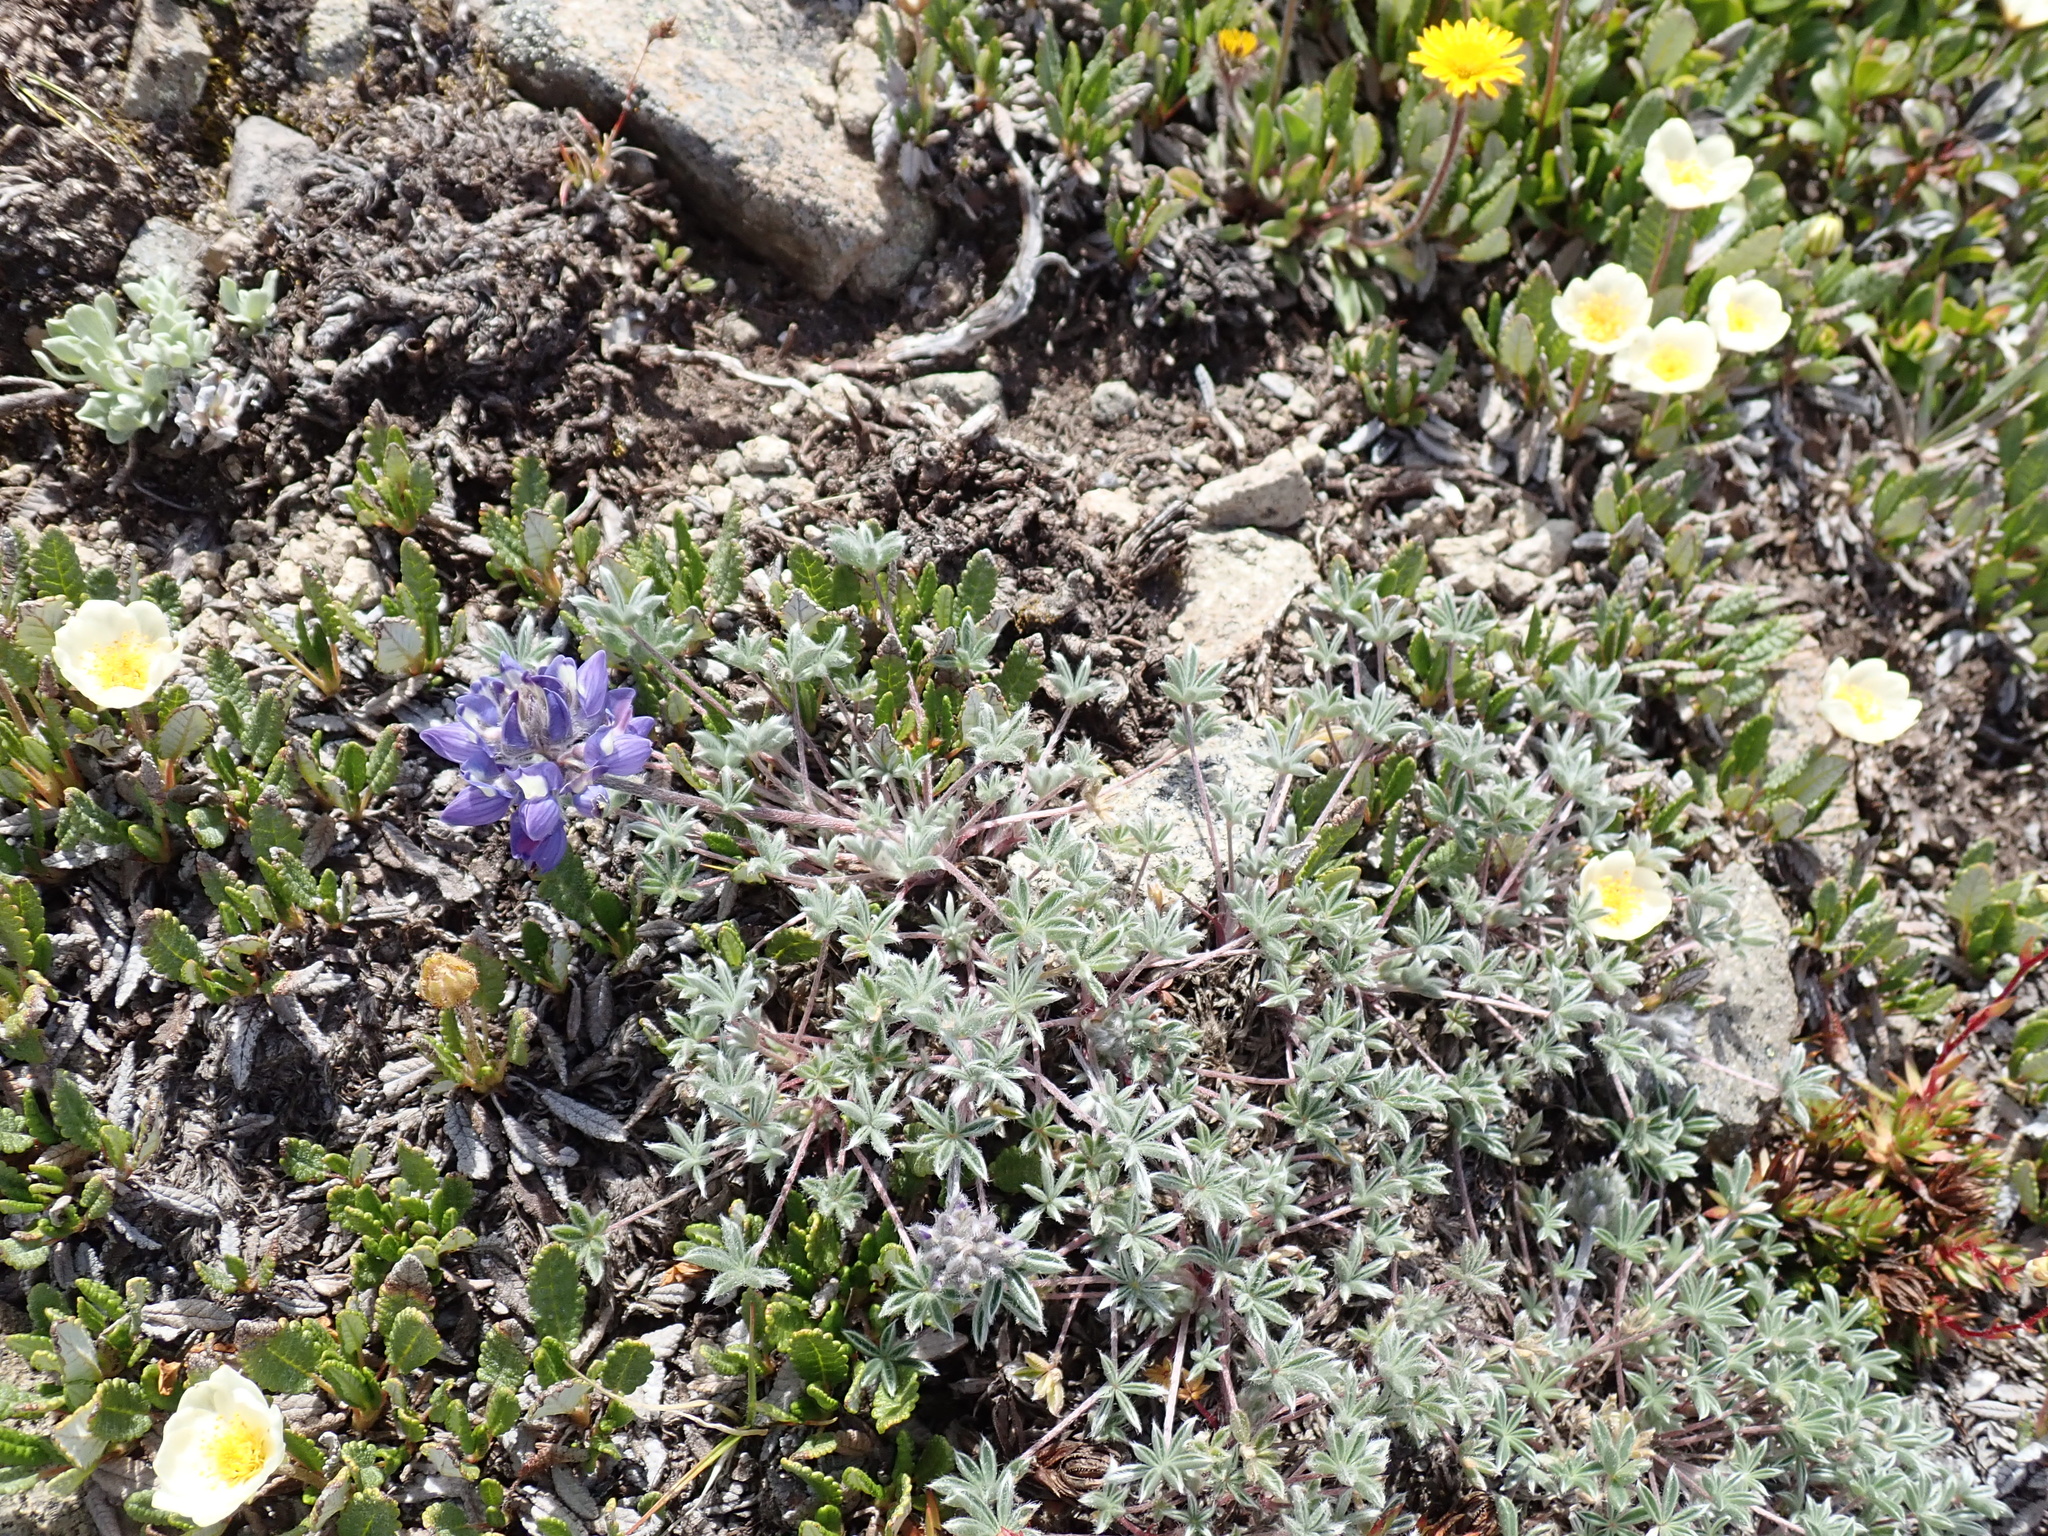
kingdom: Plantae
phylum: Tracheophyta
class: Magnoliopsida
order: Fabales
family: Fabaceae
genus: Lupinus
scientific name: Lupinus sellulus
